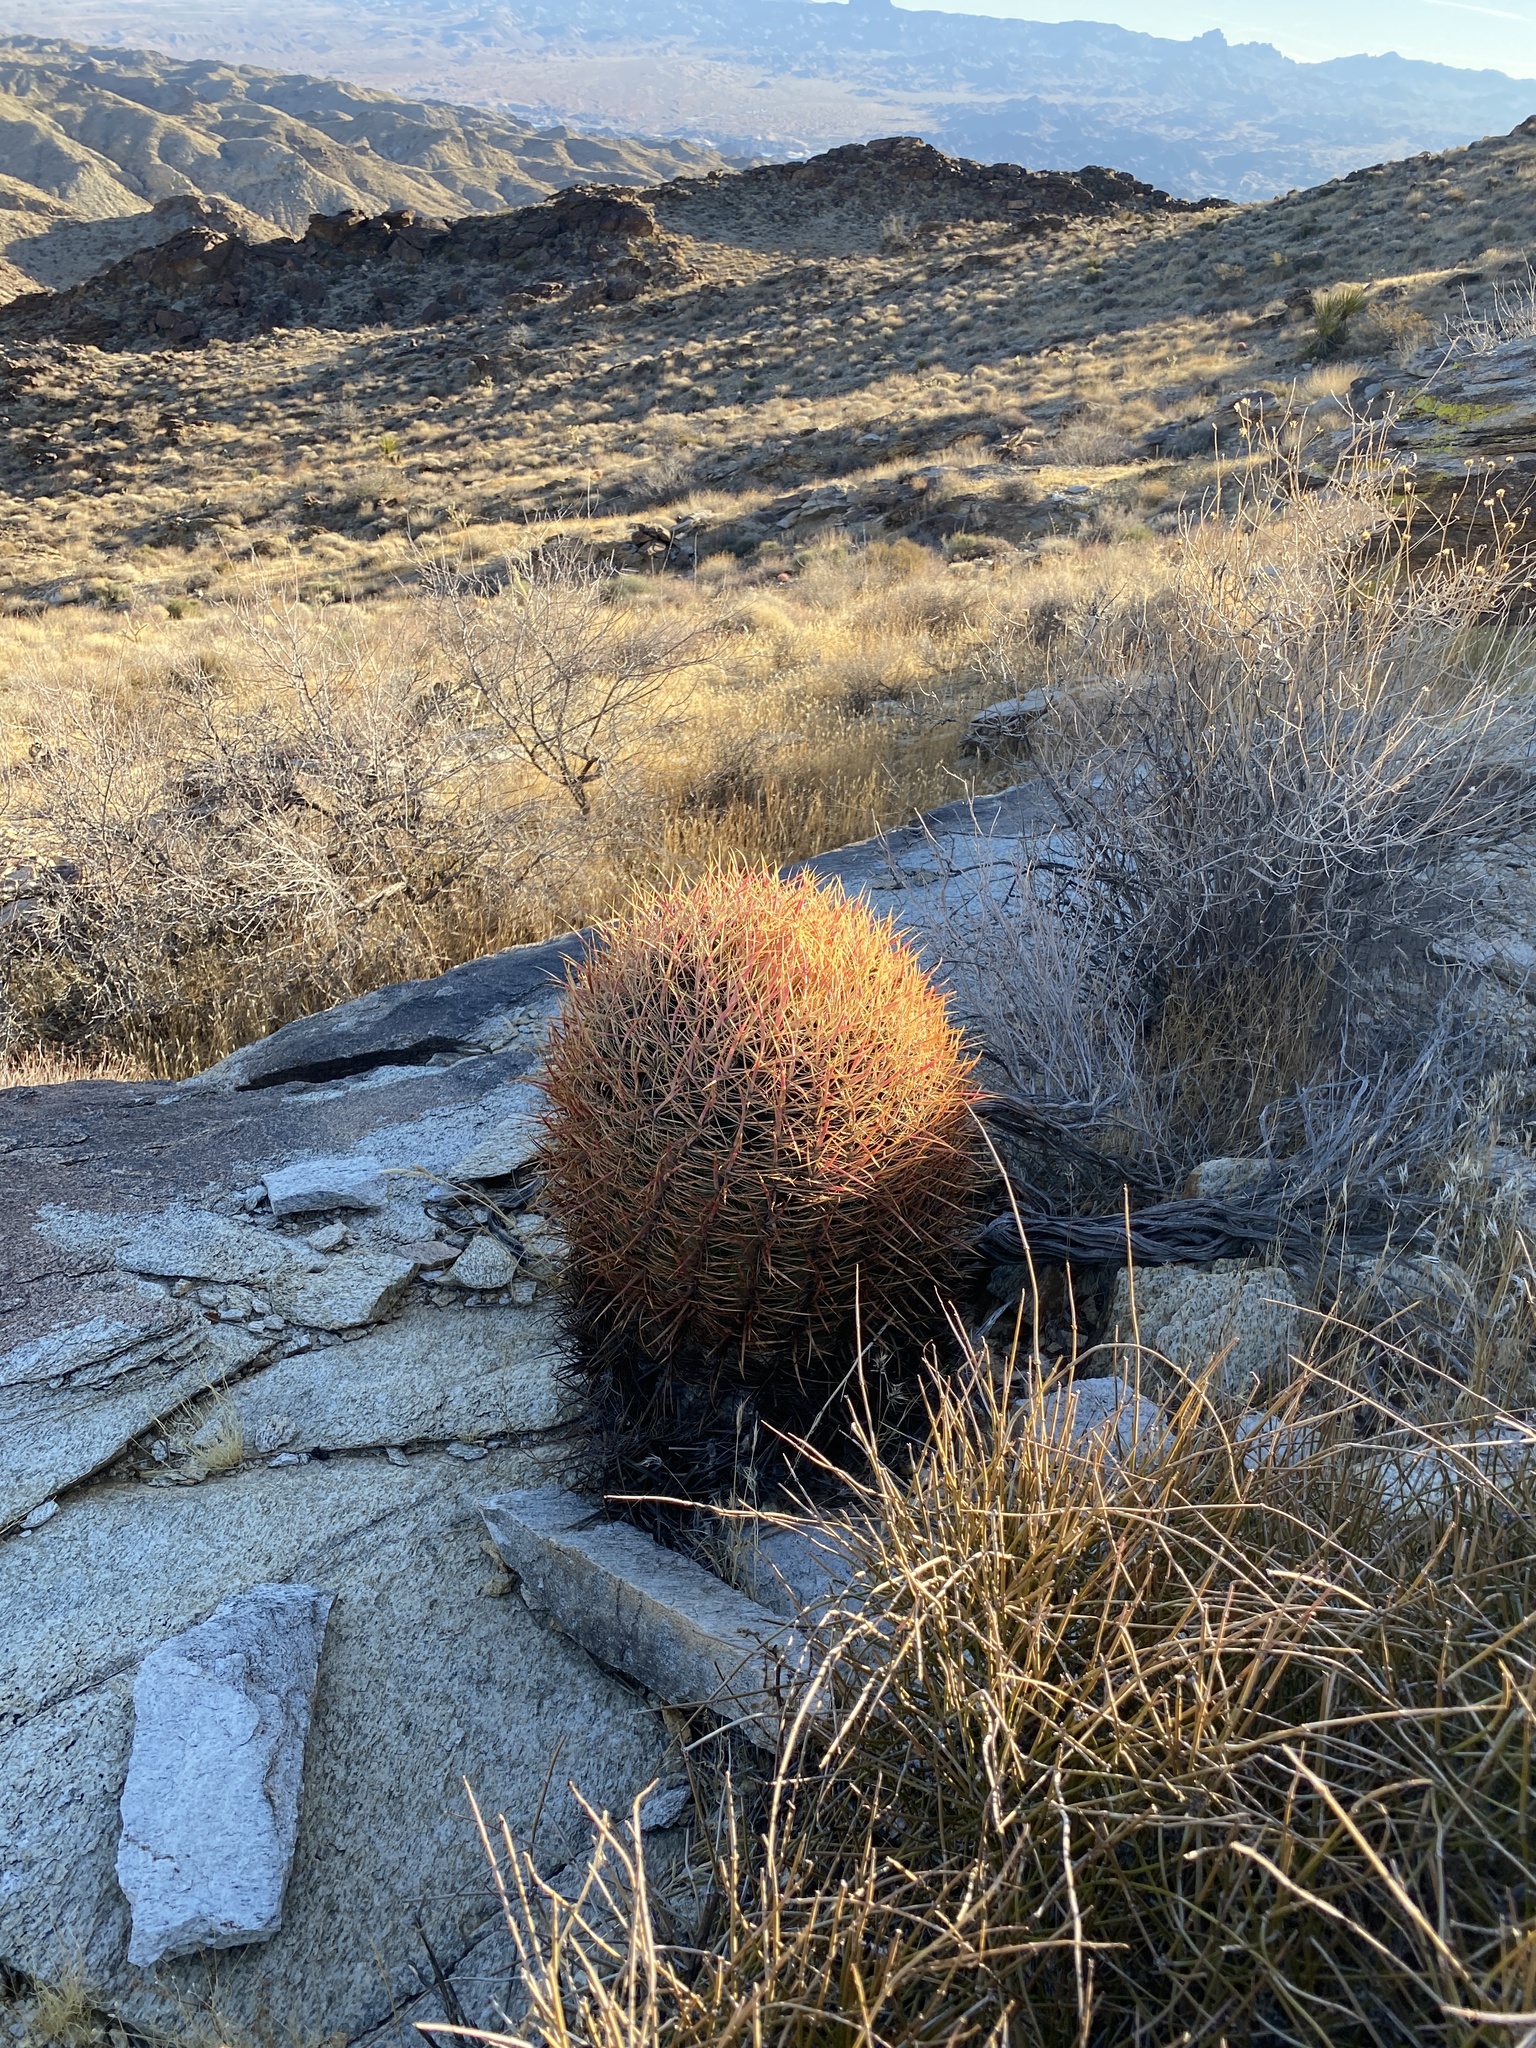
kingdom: Plantae
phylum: Tracheophyta
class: Magnoliopsida
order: Caryophyllales
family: Cactaceae
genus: Ferocactus
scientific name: Ferocactus cylindraceus
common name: California barrel cactus
